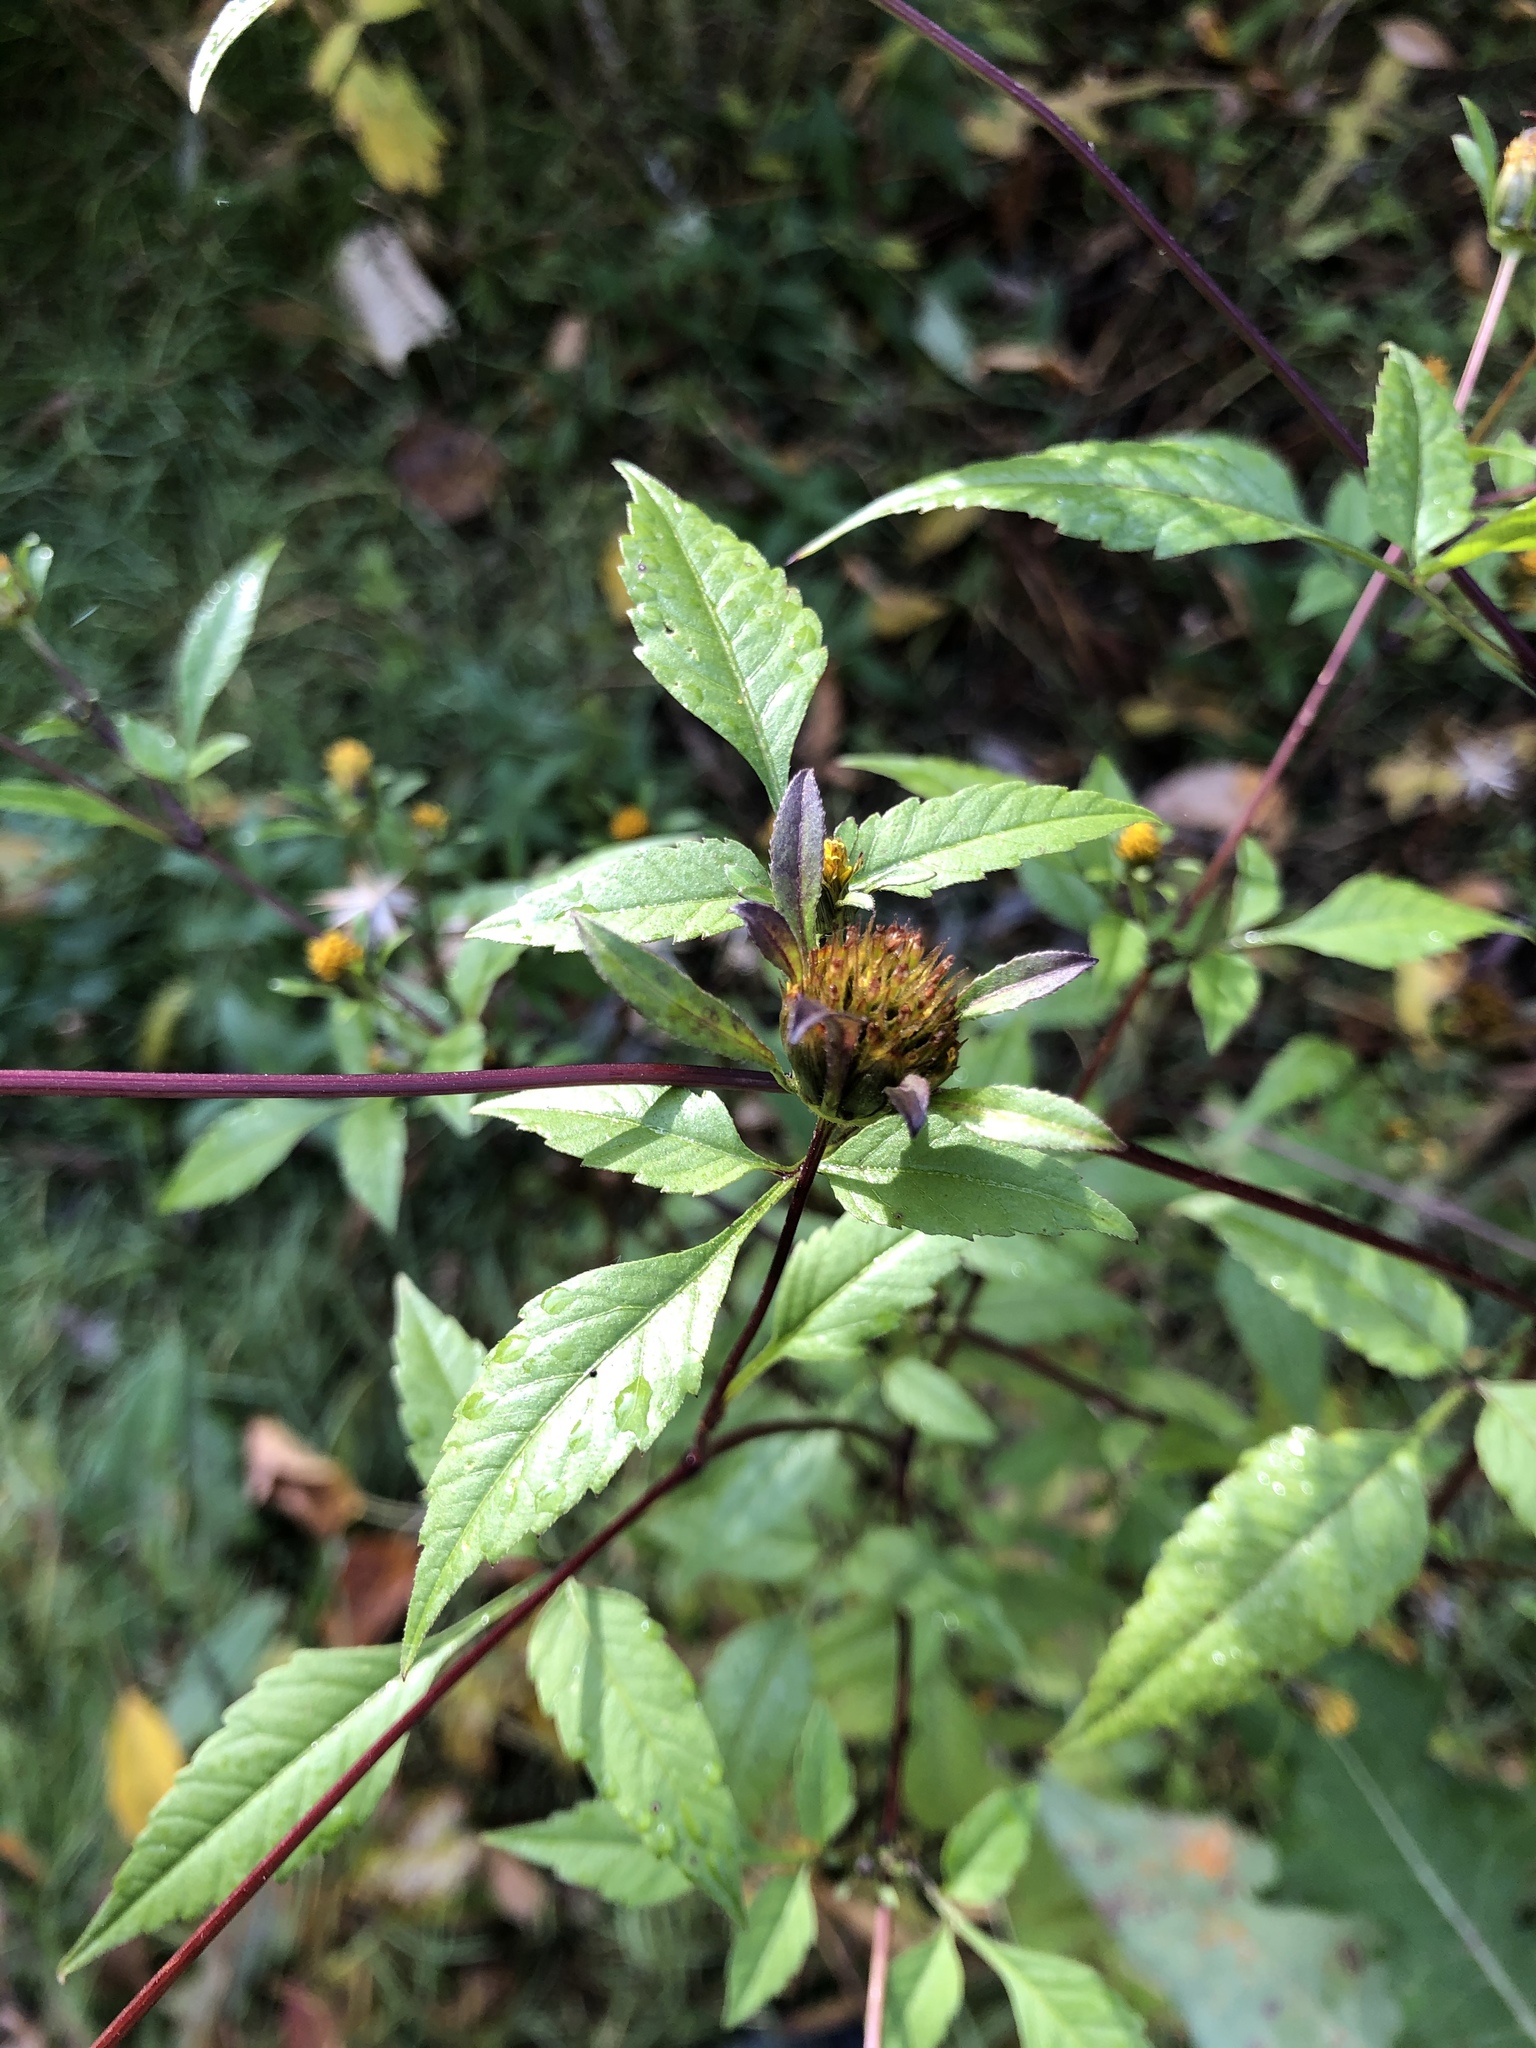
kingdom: Plantae
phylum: Tracheophyta
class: Magnoliopsida
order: Asterales
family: Asteraceae
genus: Bidens
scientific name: Bidens frondosa
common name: Beggarticks
